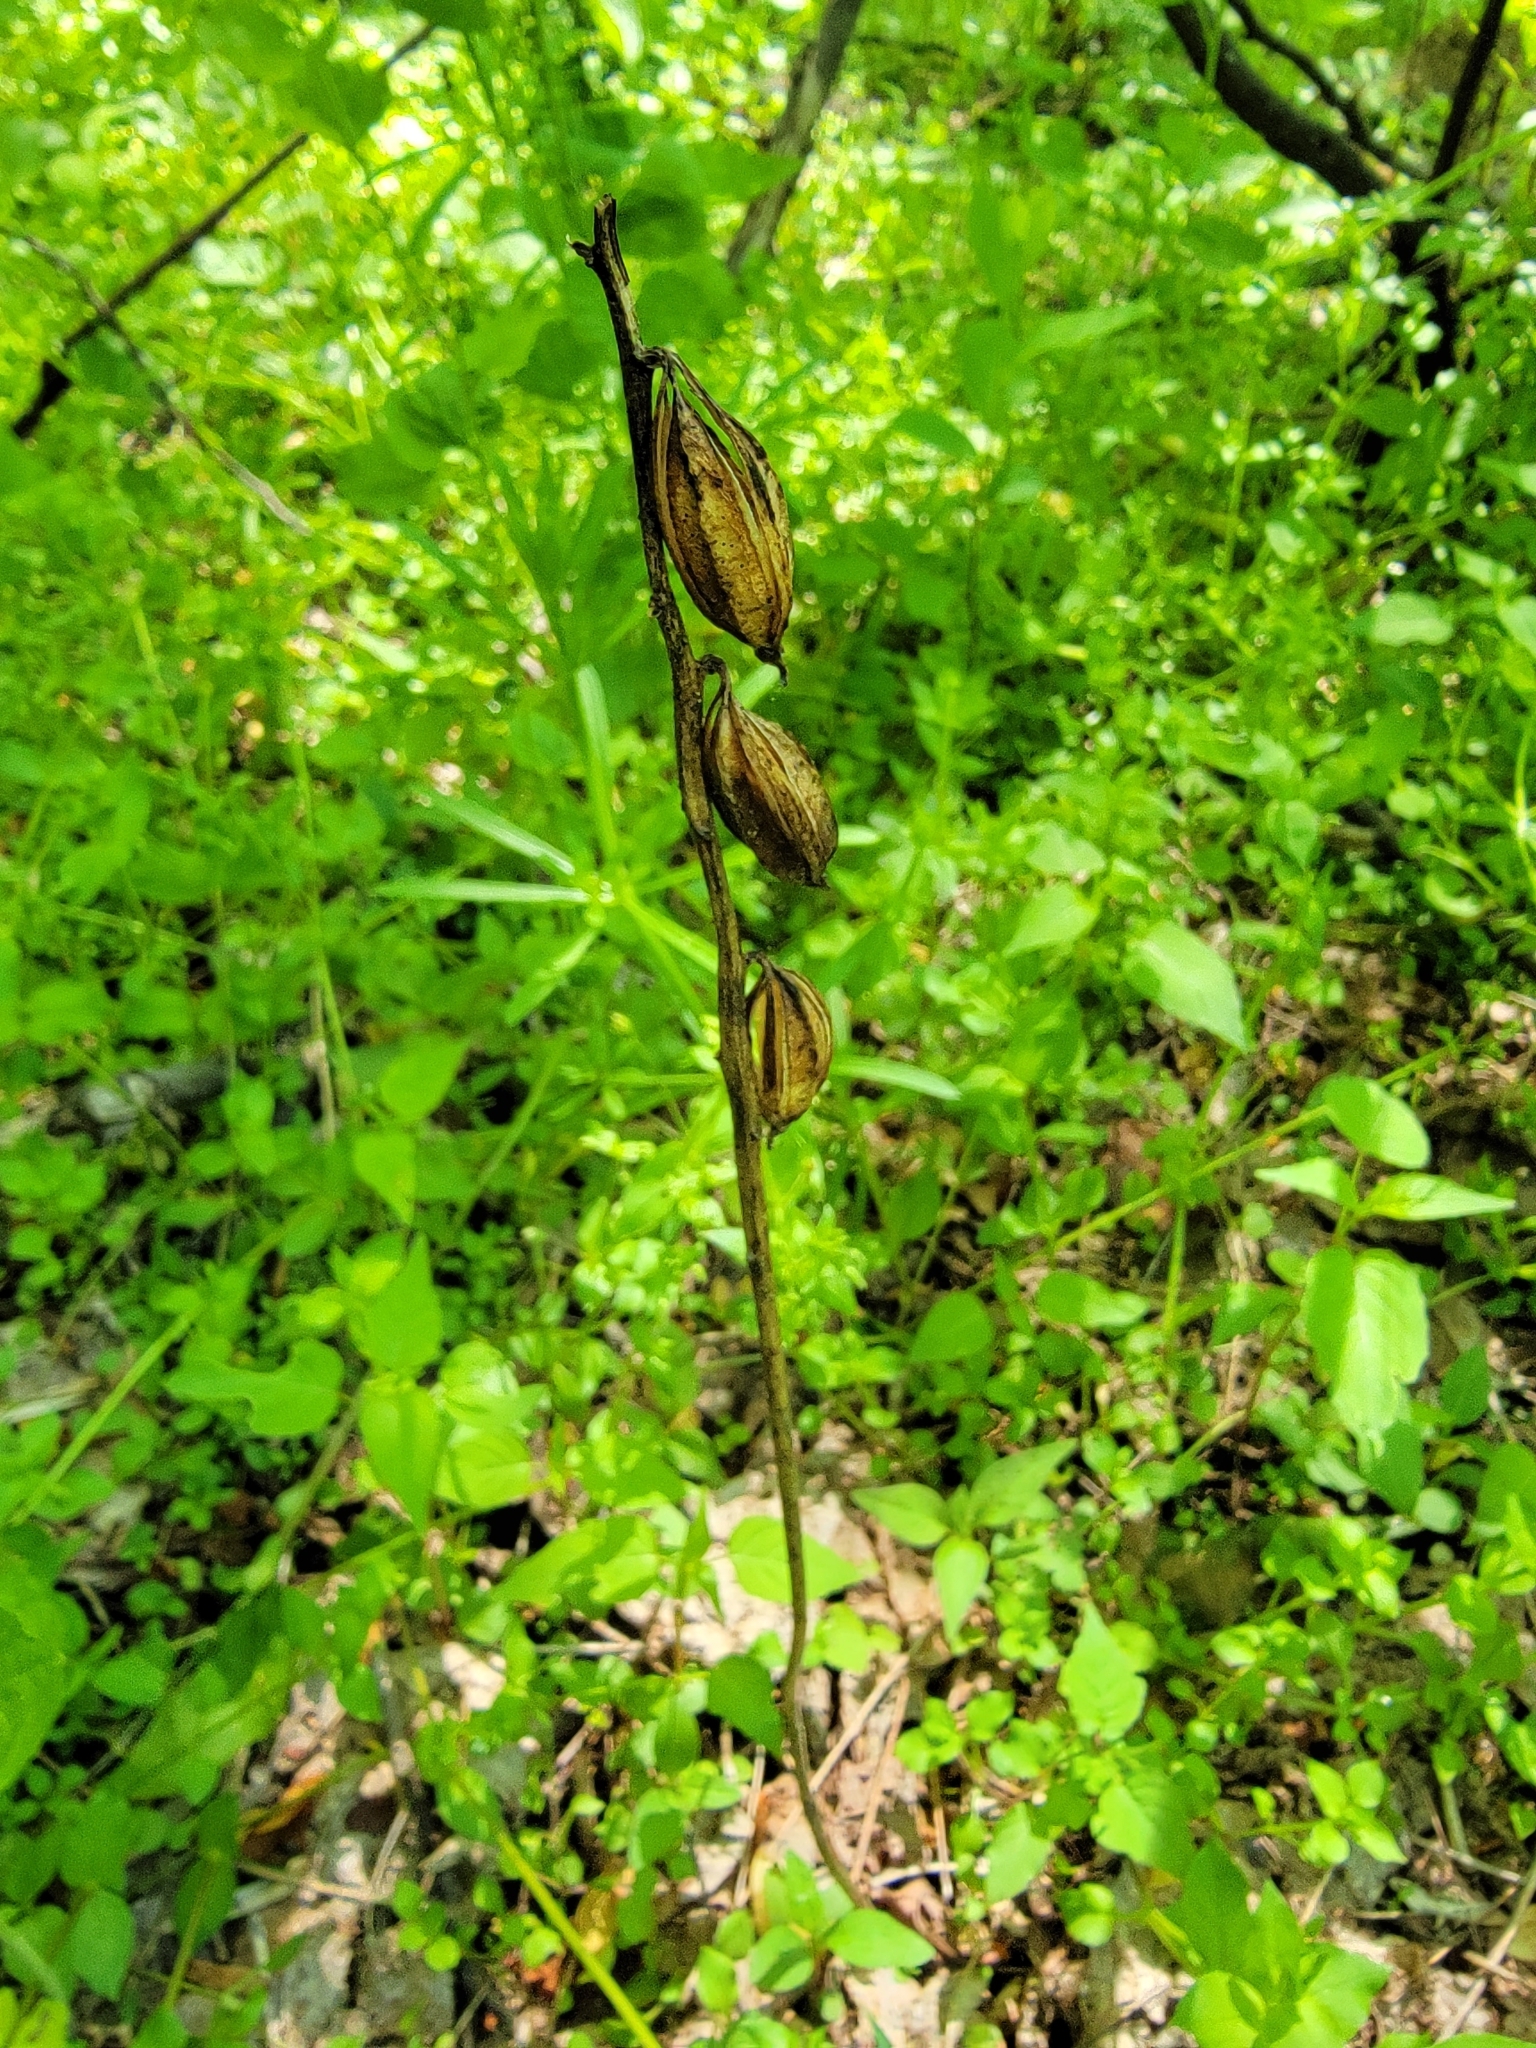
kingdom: Plantae
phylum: Tracheophyta
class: Liliopsida
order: Asparagales
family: Orchidaceae
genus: Aplectrum
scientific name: Aplectrum hyemale
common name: Adam-and-eve
